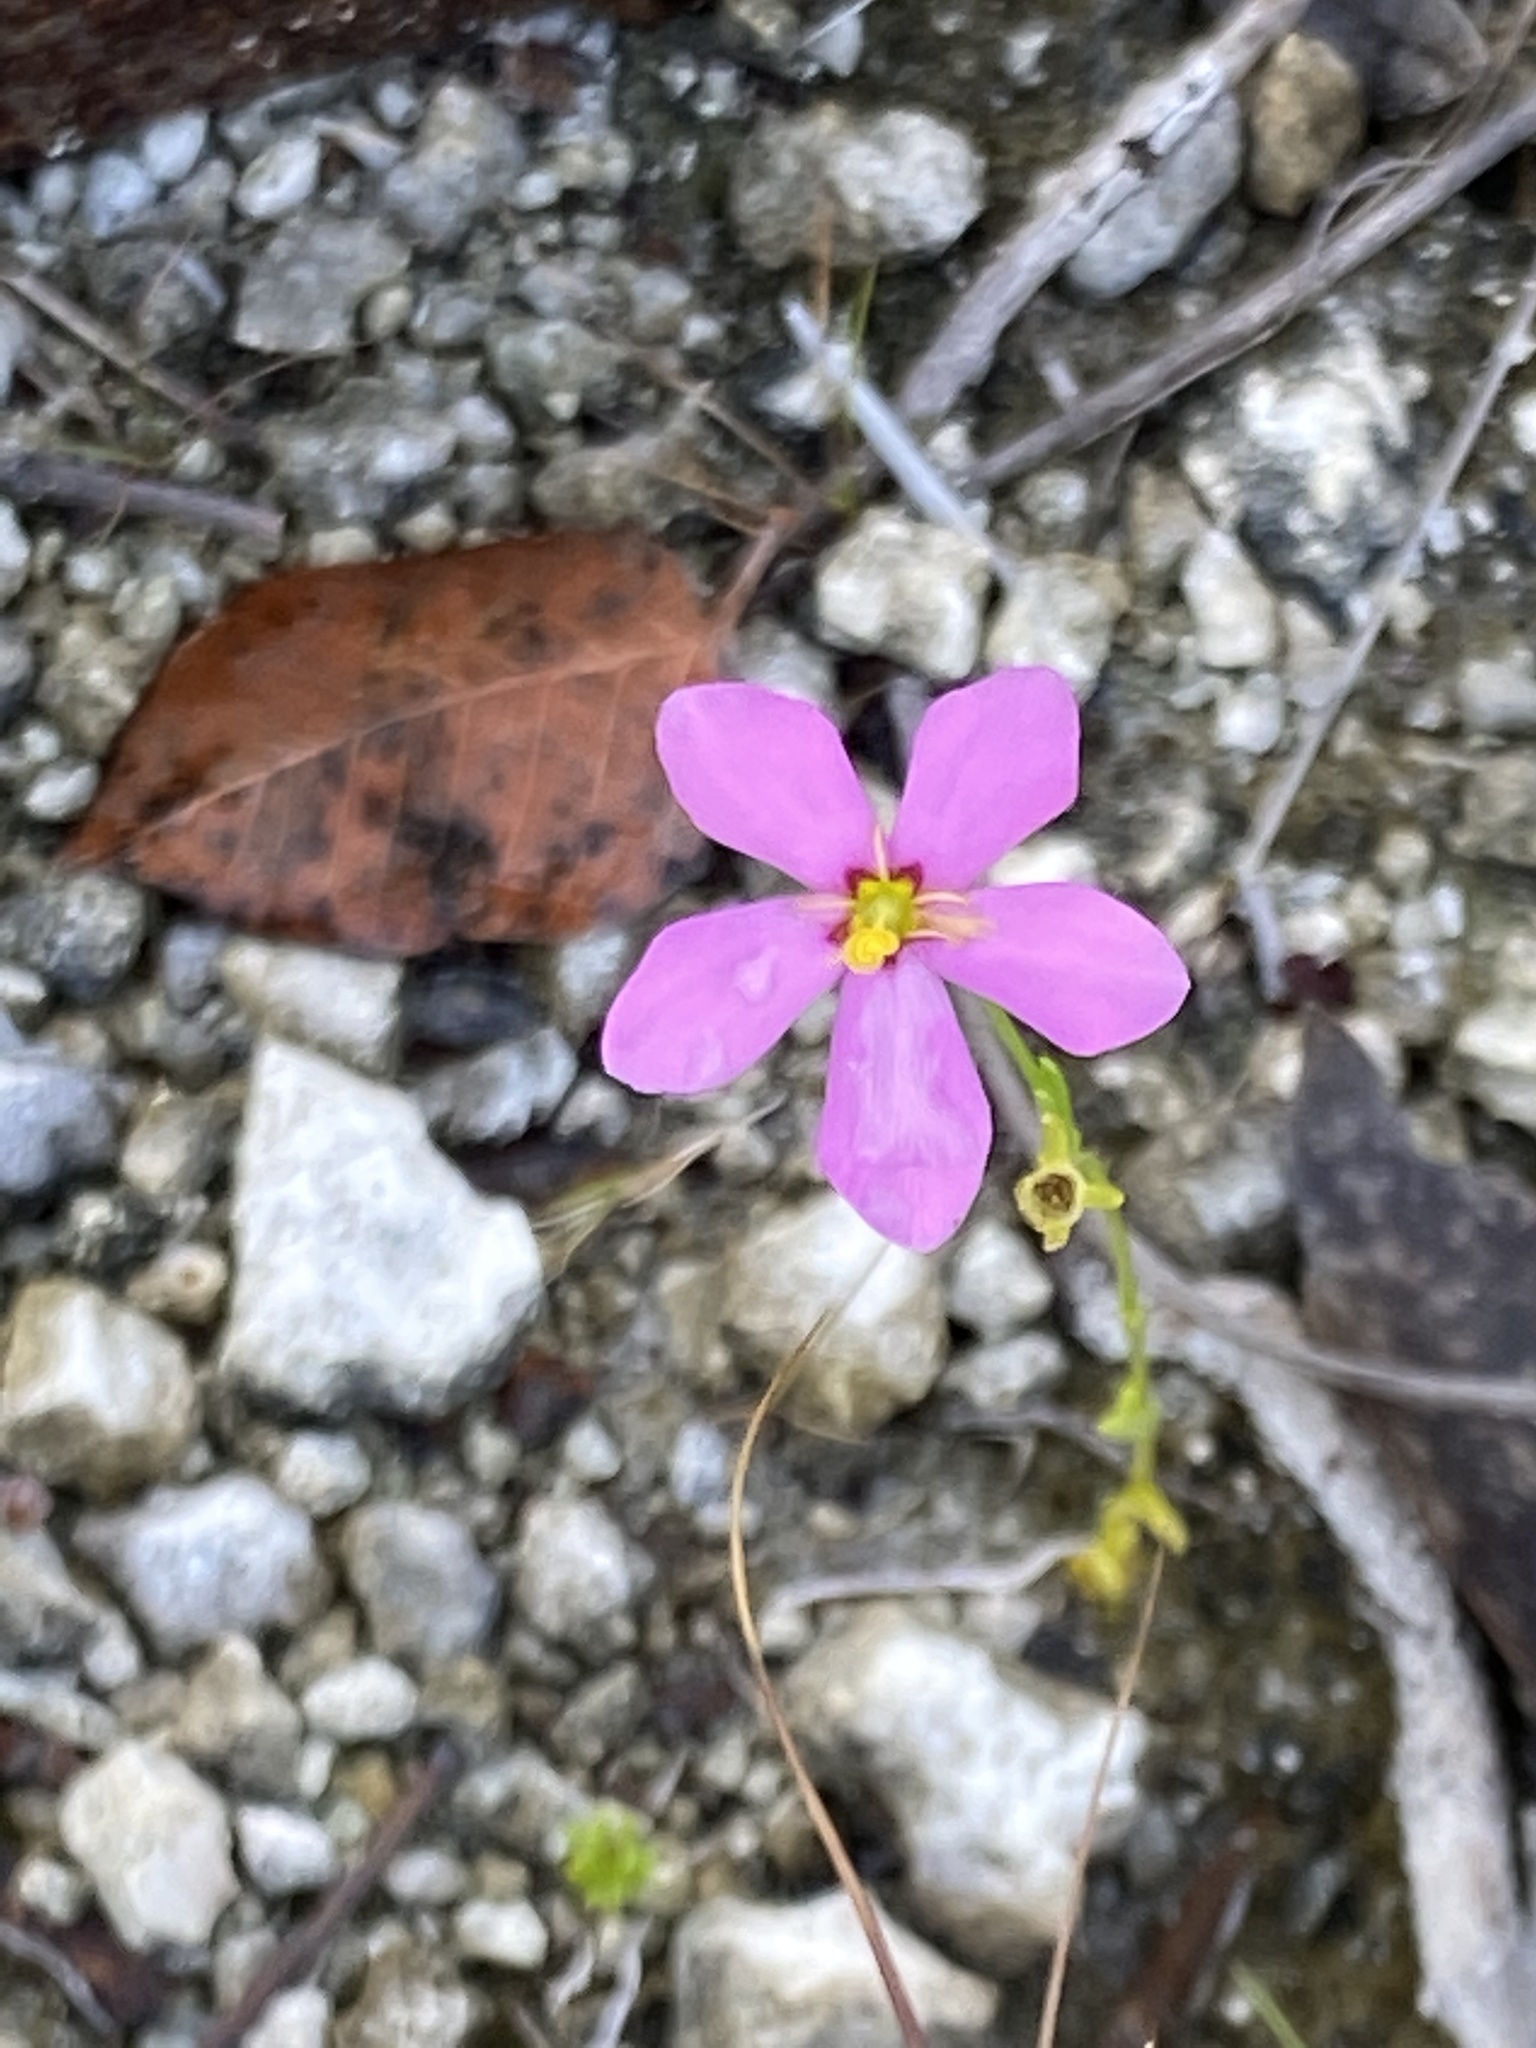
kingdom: Plantae
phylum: Tracheophyta
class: Magnoliopsida
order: Gentianales
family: Gentianaceae
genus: Sabatia
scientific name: Sabatia stellaris
